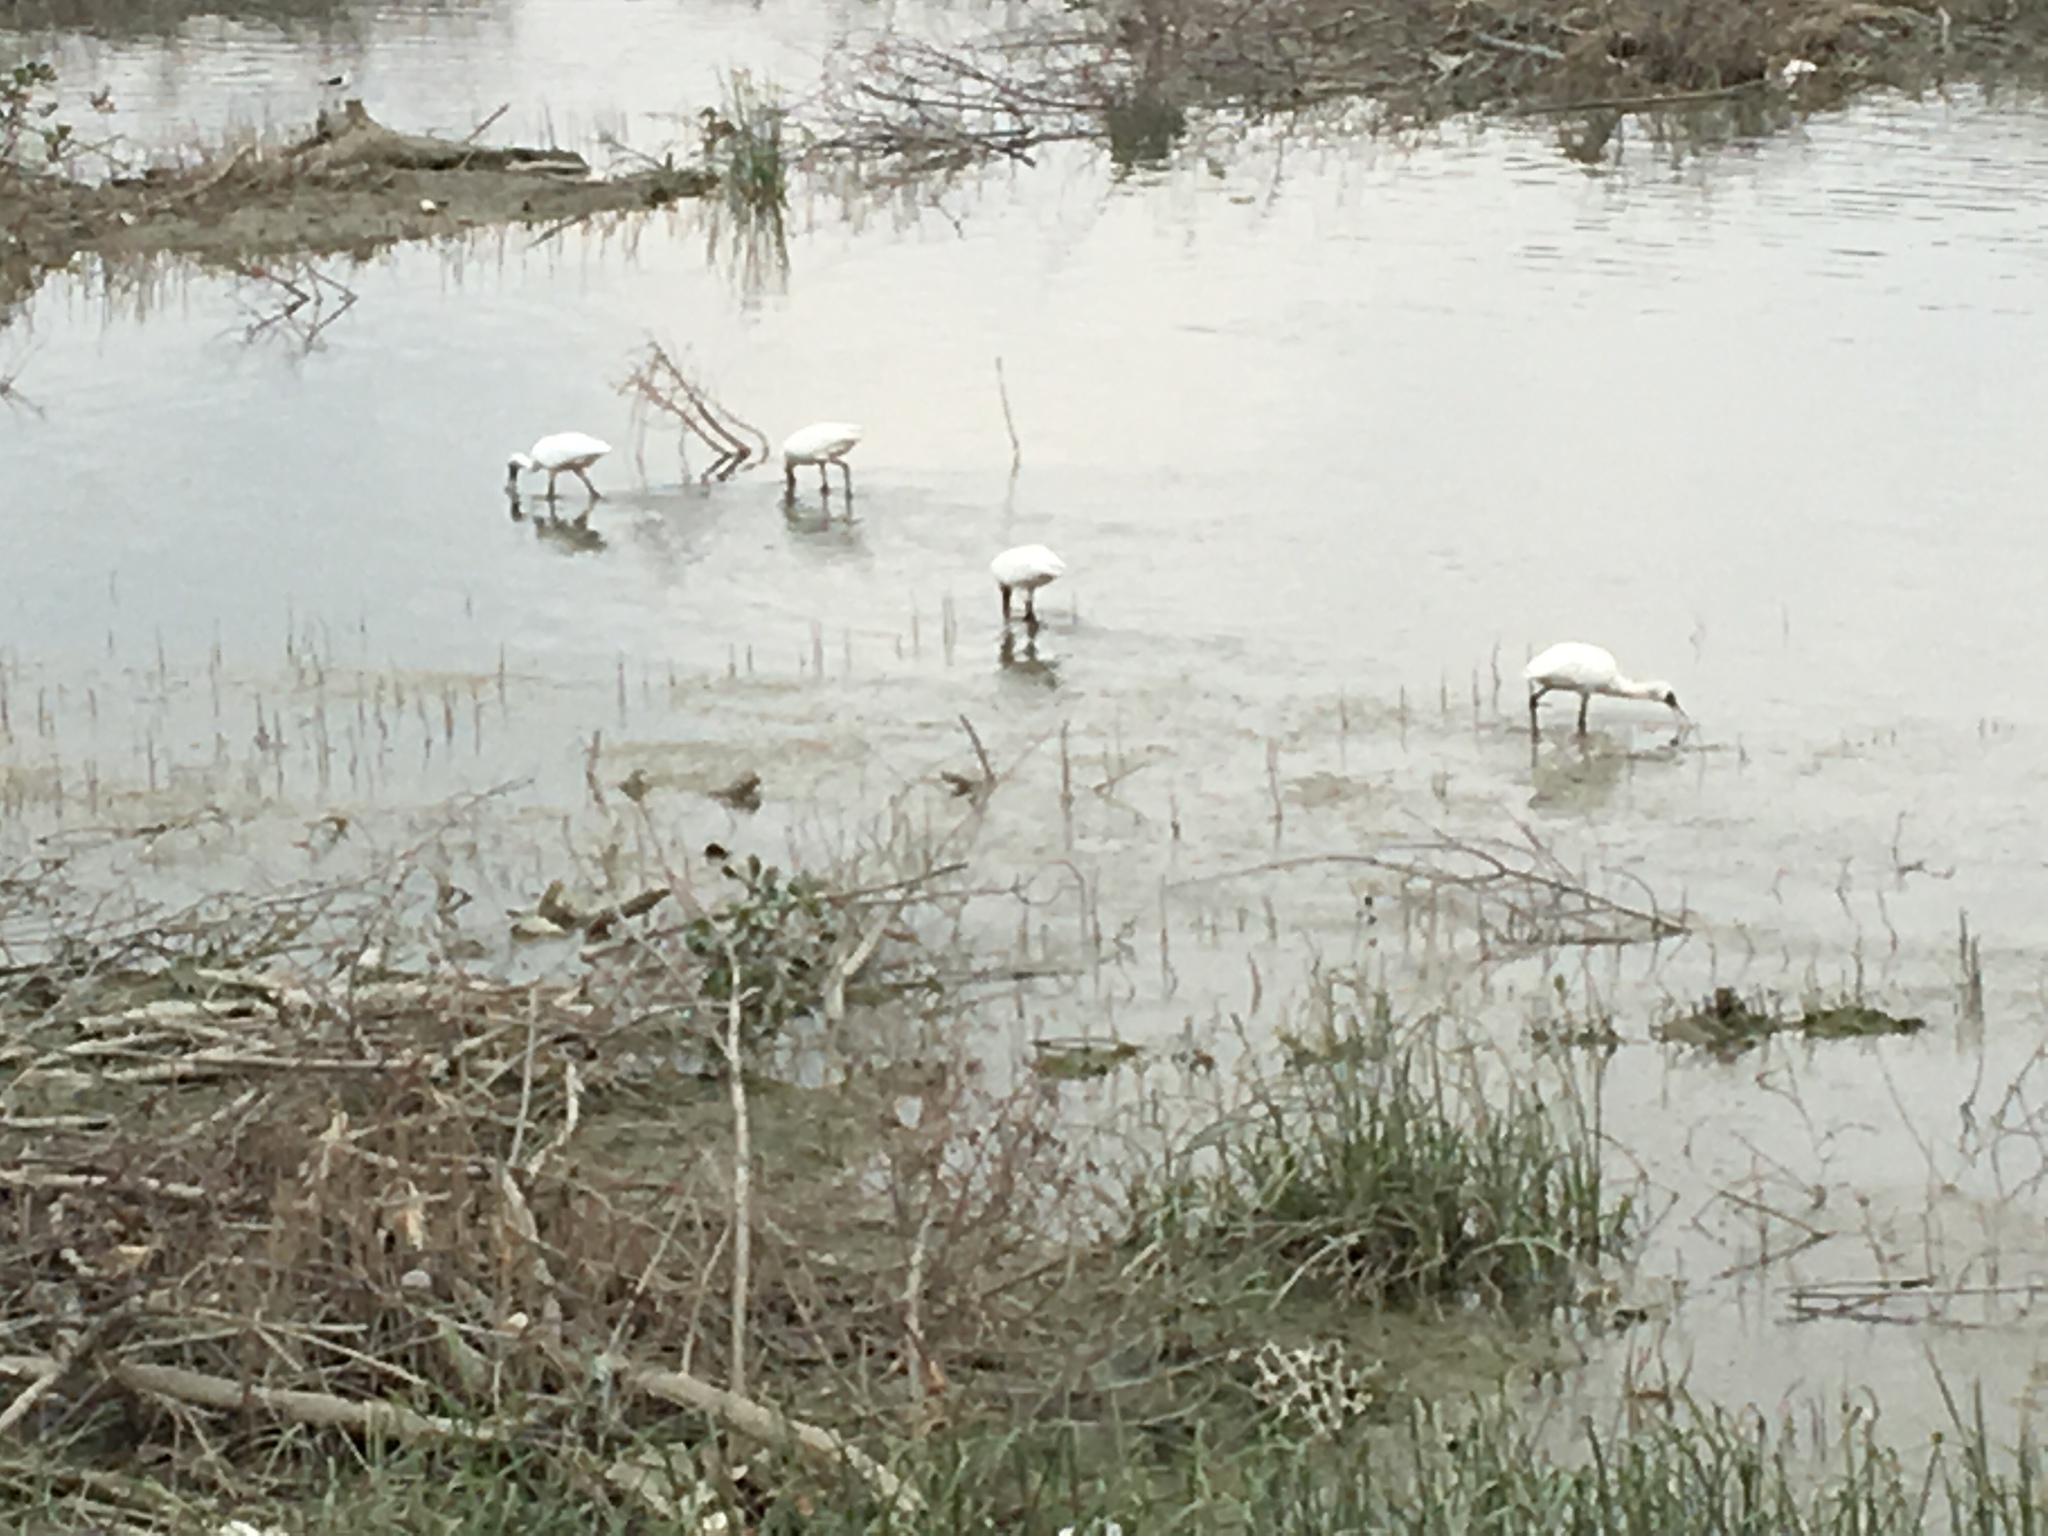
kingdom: Animalia
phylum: Chordata
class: Aves
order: Pelecaniformes
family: Threskiornithidae
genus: Platalea
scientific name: Platalea minor
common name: Black-faced spoonbill
